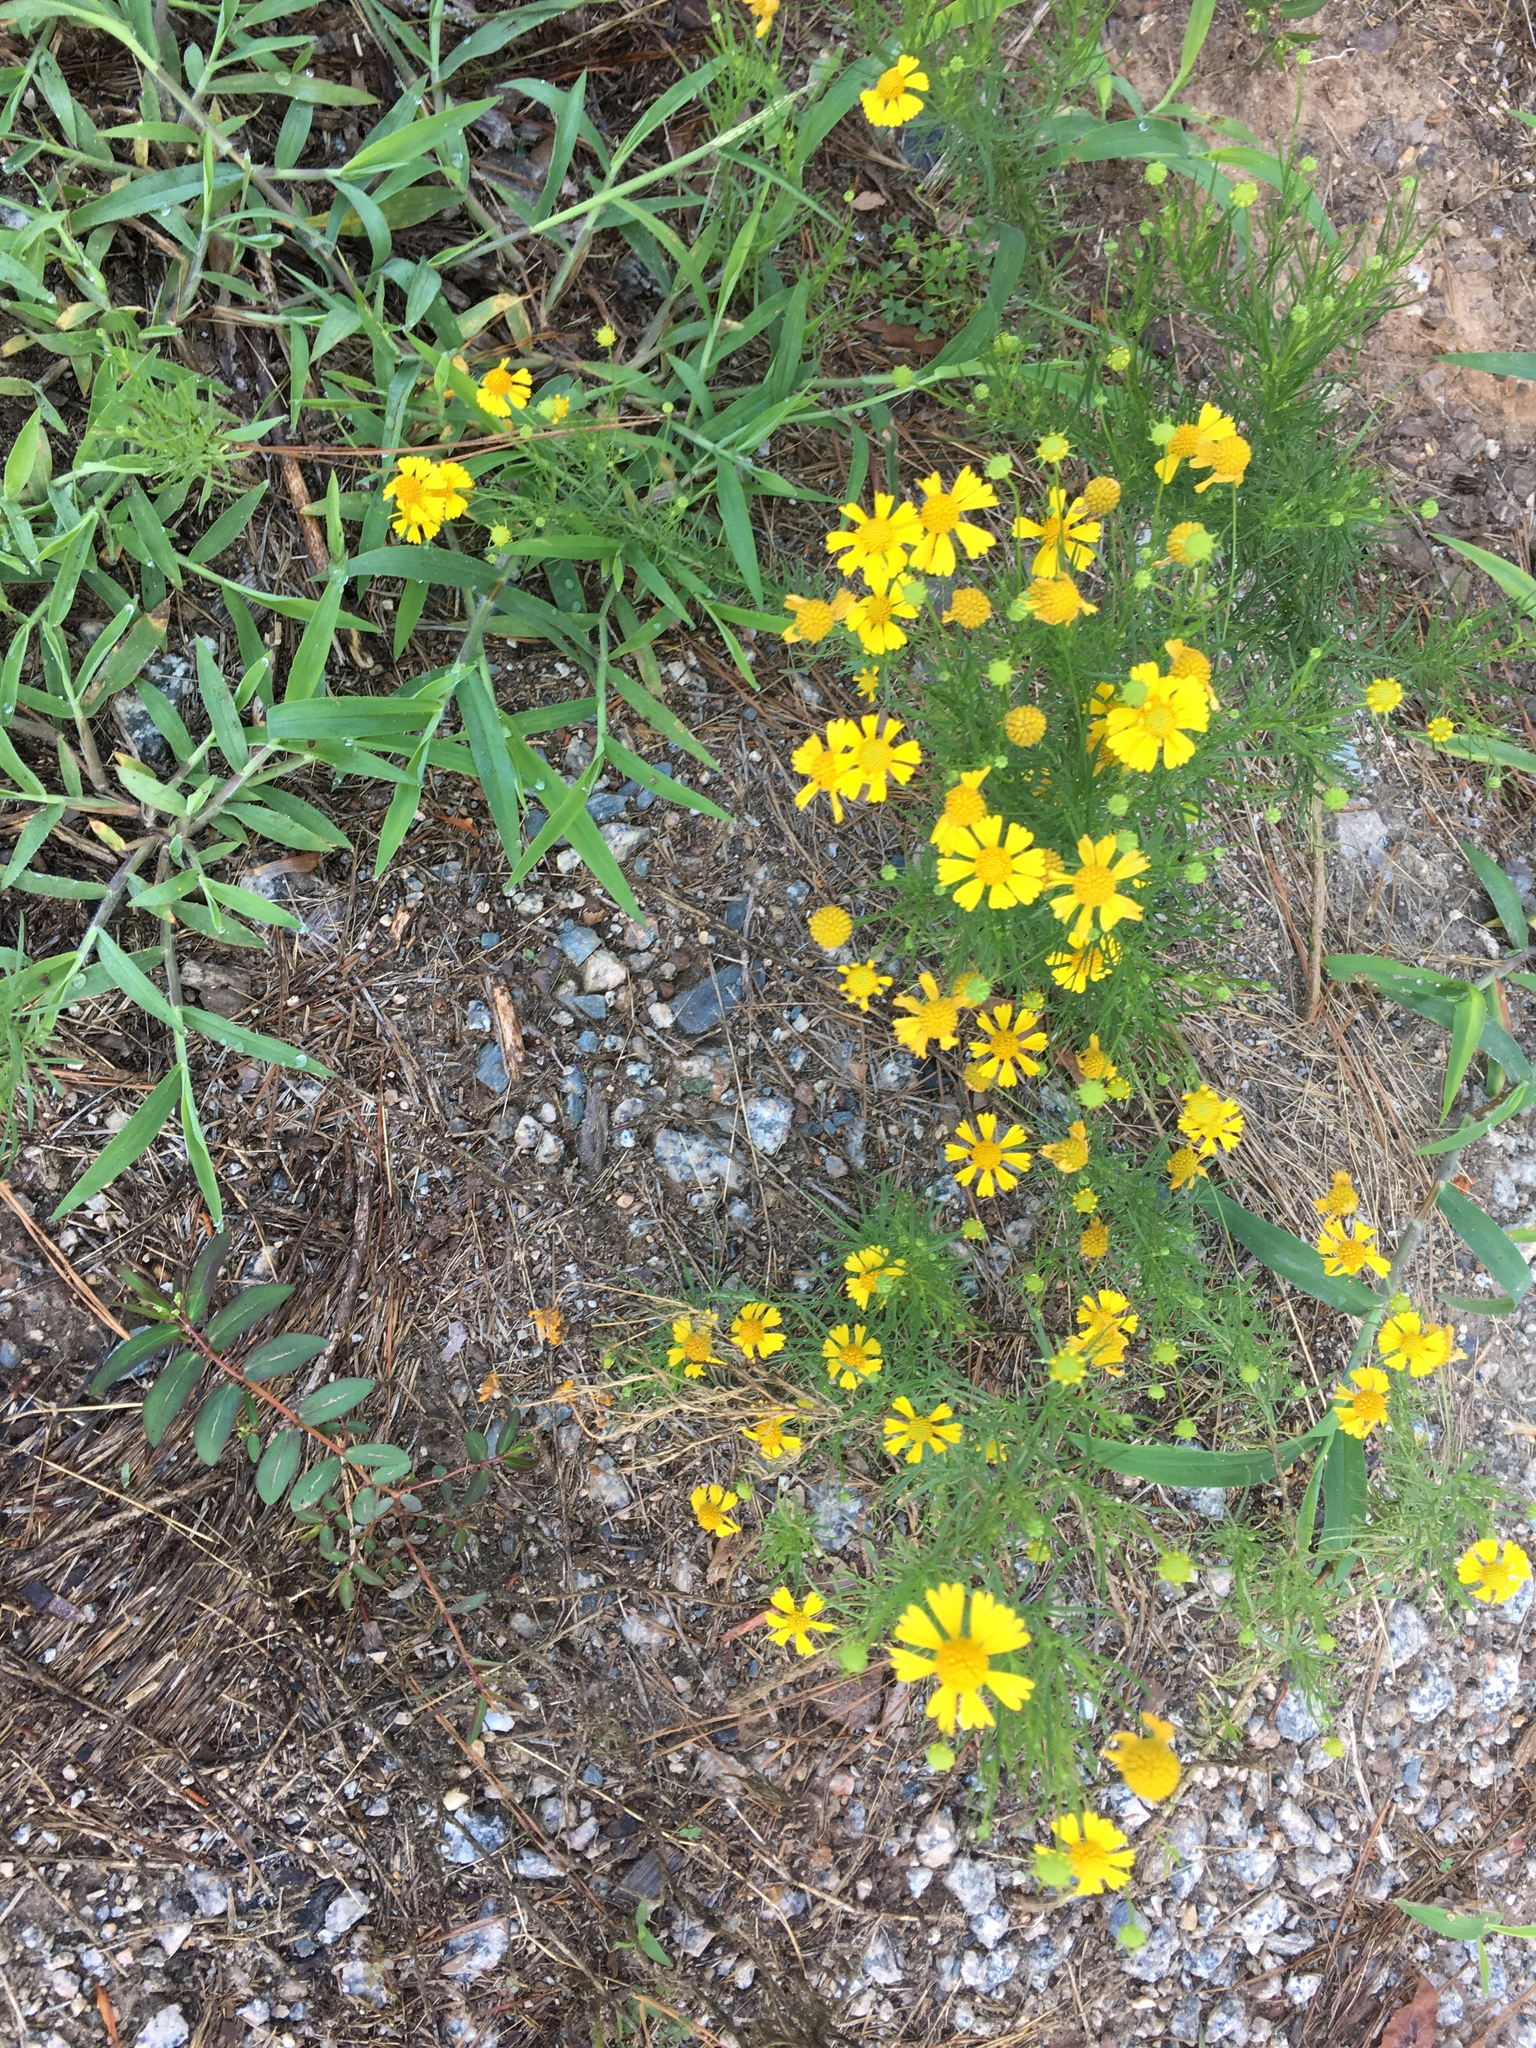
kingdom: Plantae
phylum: Tracheophyta
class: Magnoliopsida
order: Asterales
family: Asteraceae
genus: Helenium
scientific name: Helenium amarum
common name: Bitter sneezeweed
